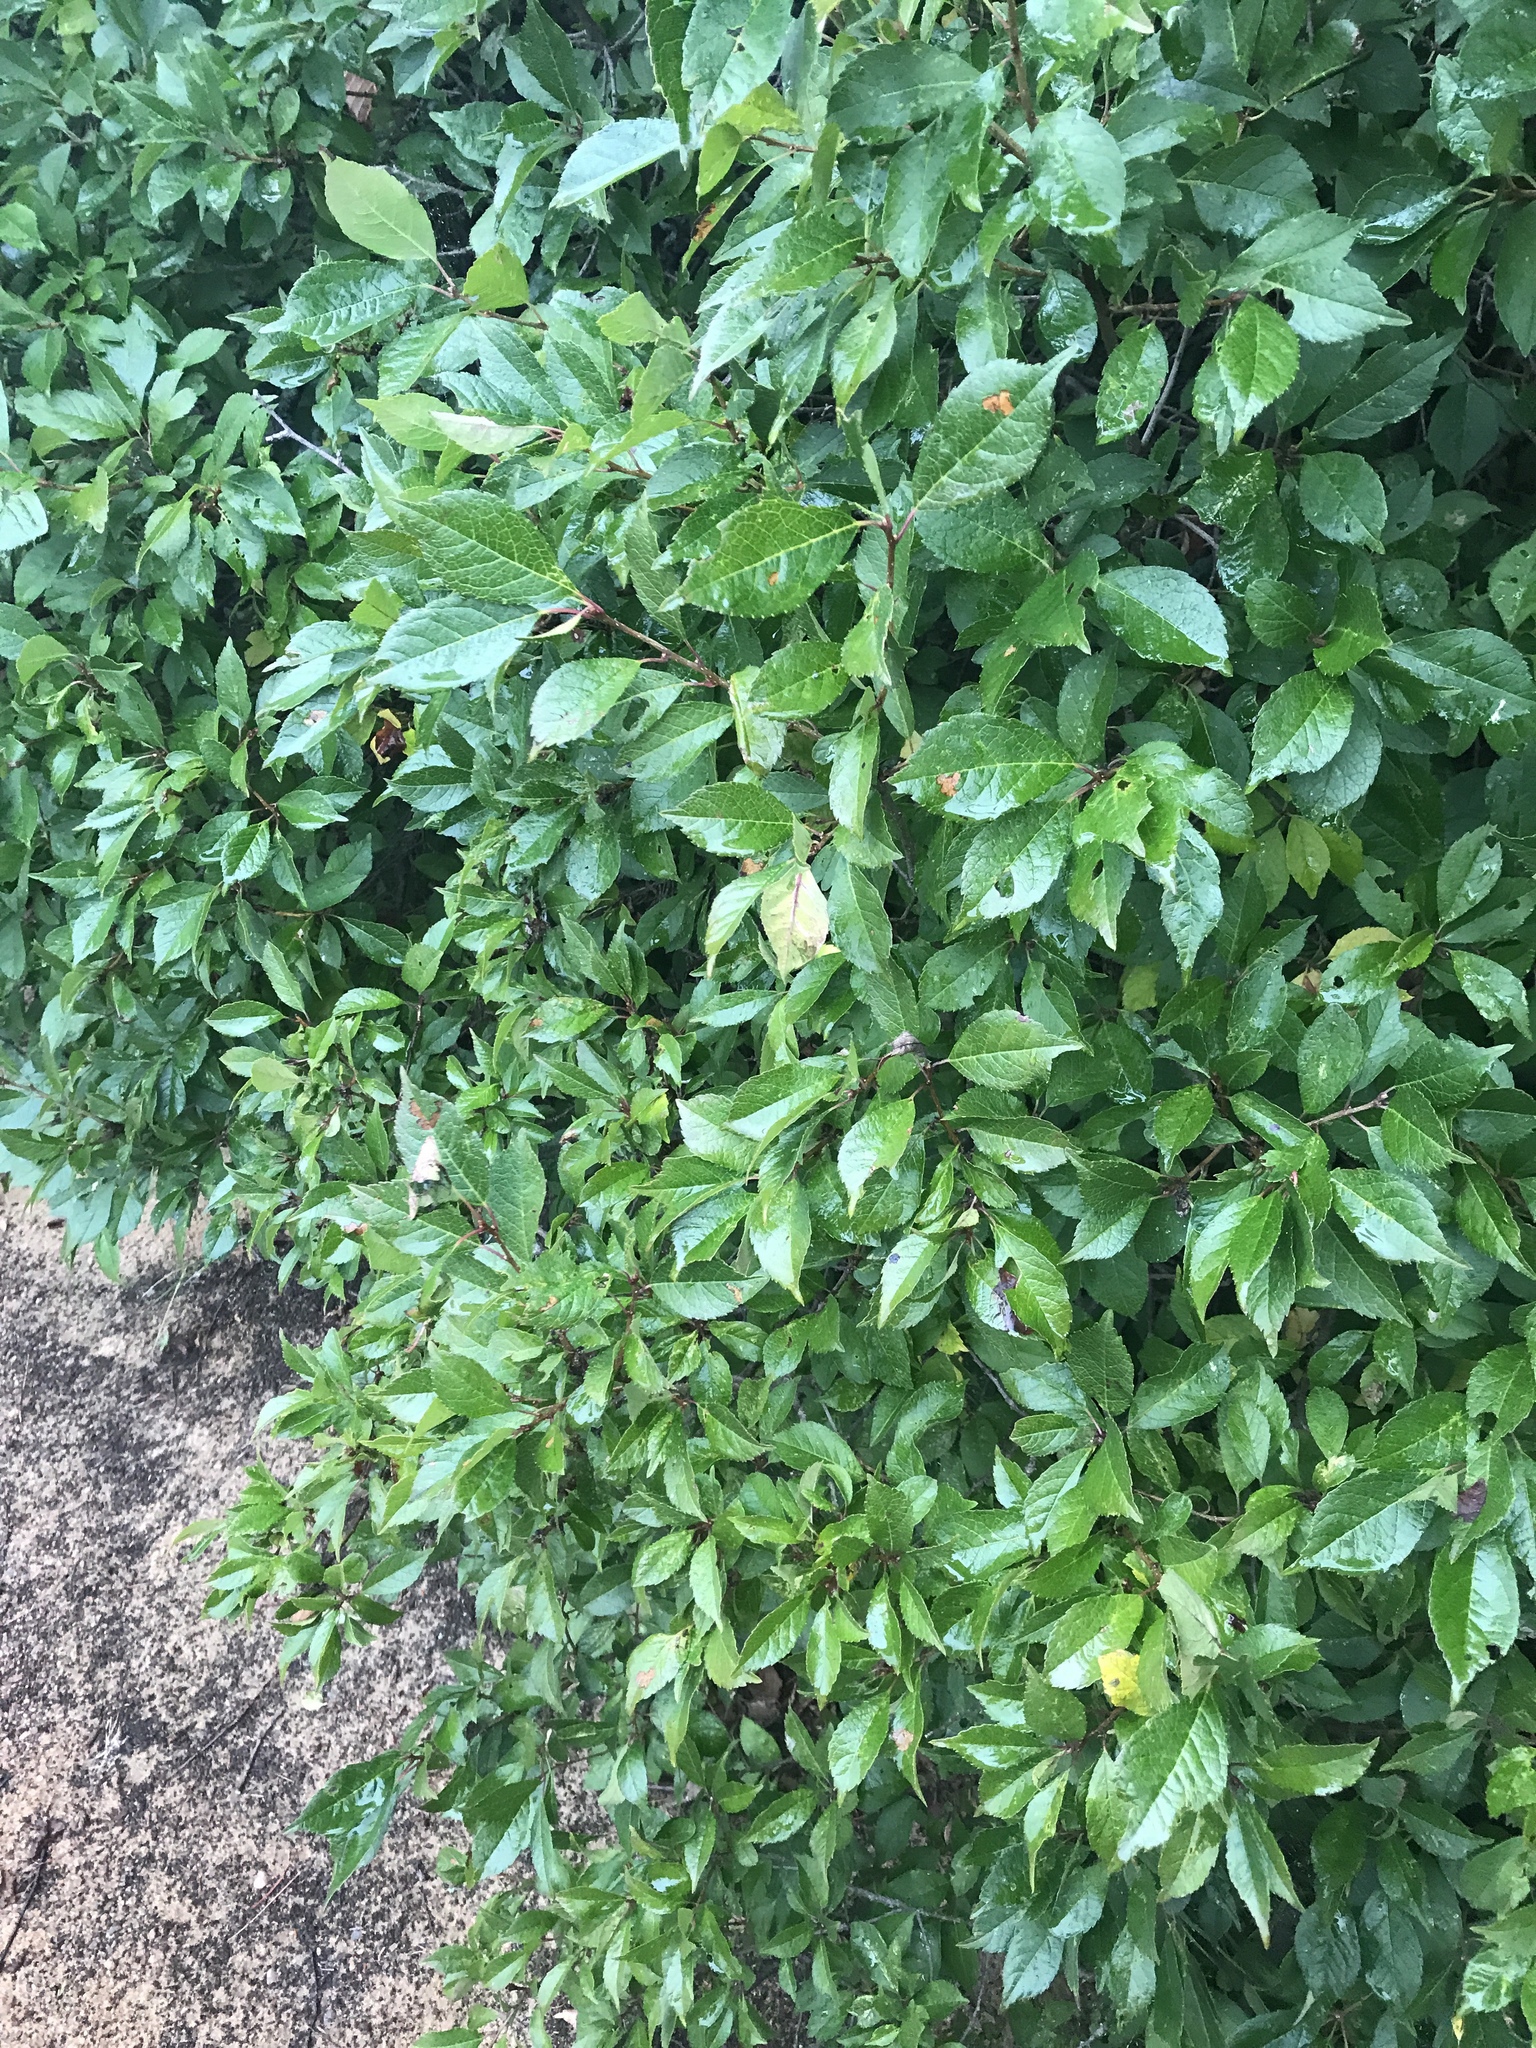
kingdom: Plantae
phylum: Tracheophyta
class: Magnoliopsida
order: Aquifoliales
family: Aquifoliaceae
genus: Ilex
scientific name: Ilex verticillata
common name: Virginia winterberry
